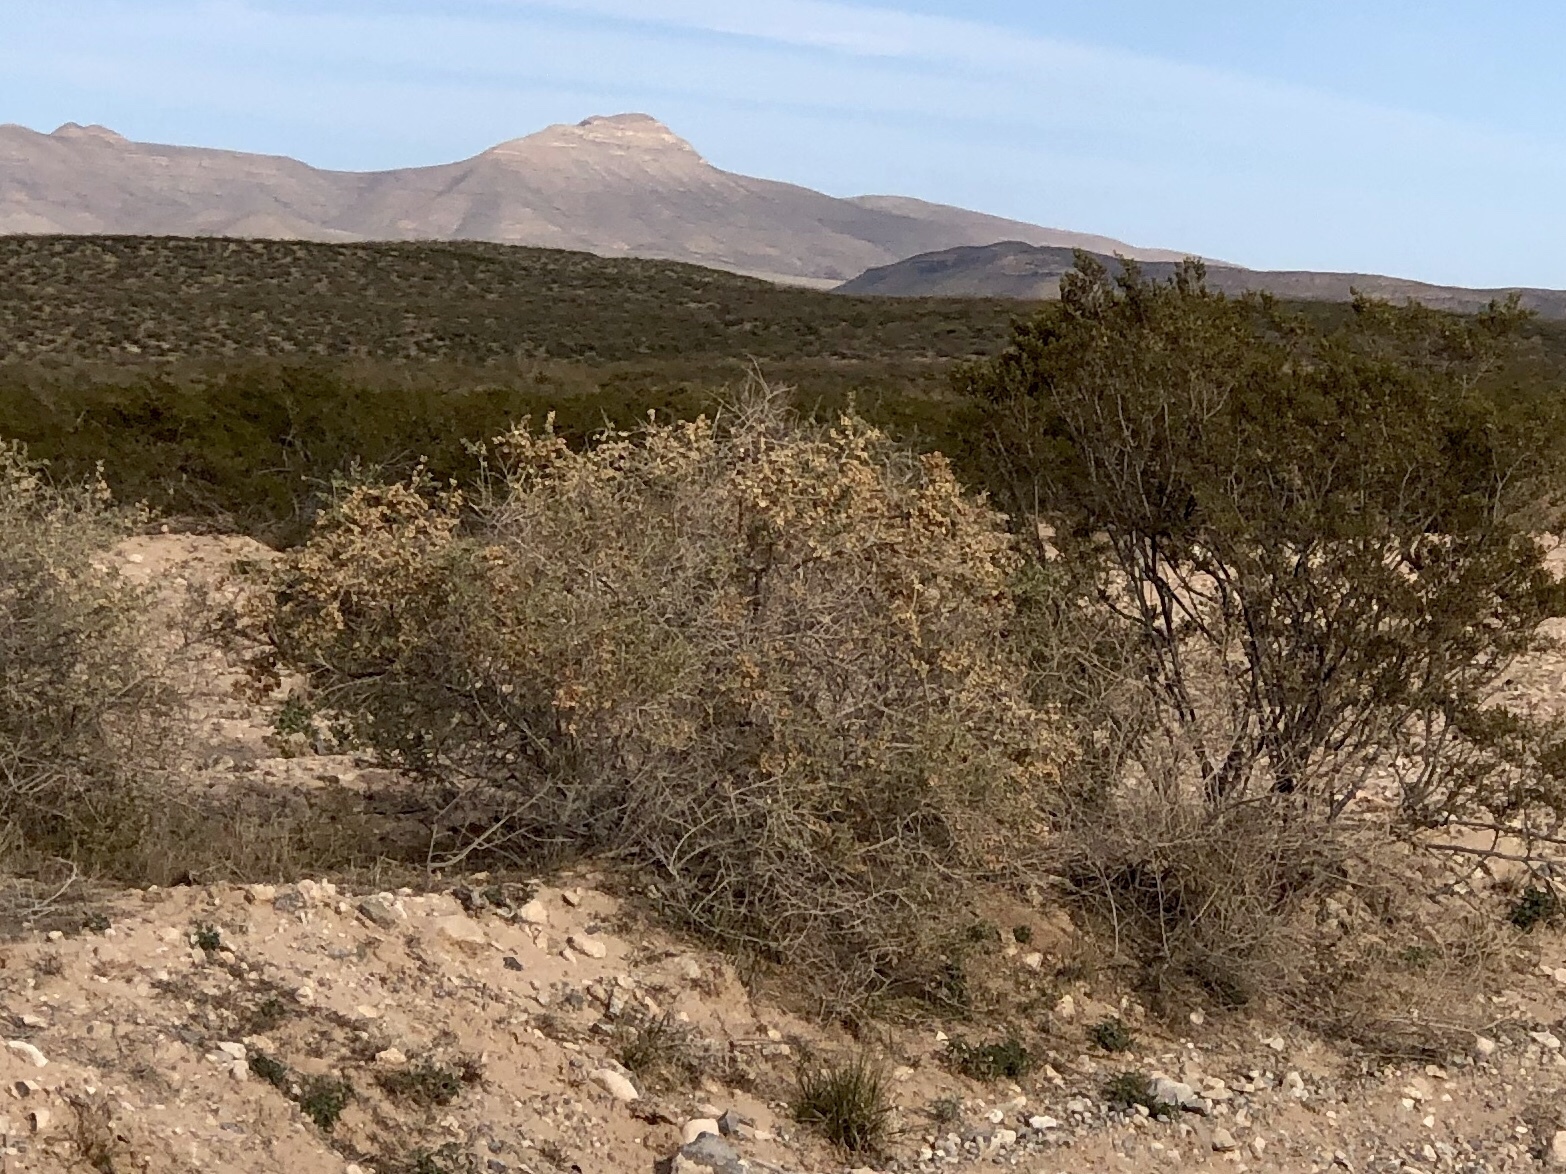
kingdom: Plantae
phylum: Tracheophyta
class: Magnoliopsida
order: Caryophyllales
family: Amaranthaceae
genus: Atriplex
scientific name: Atriplex canescens
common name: Four-wing saltbush
